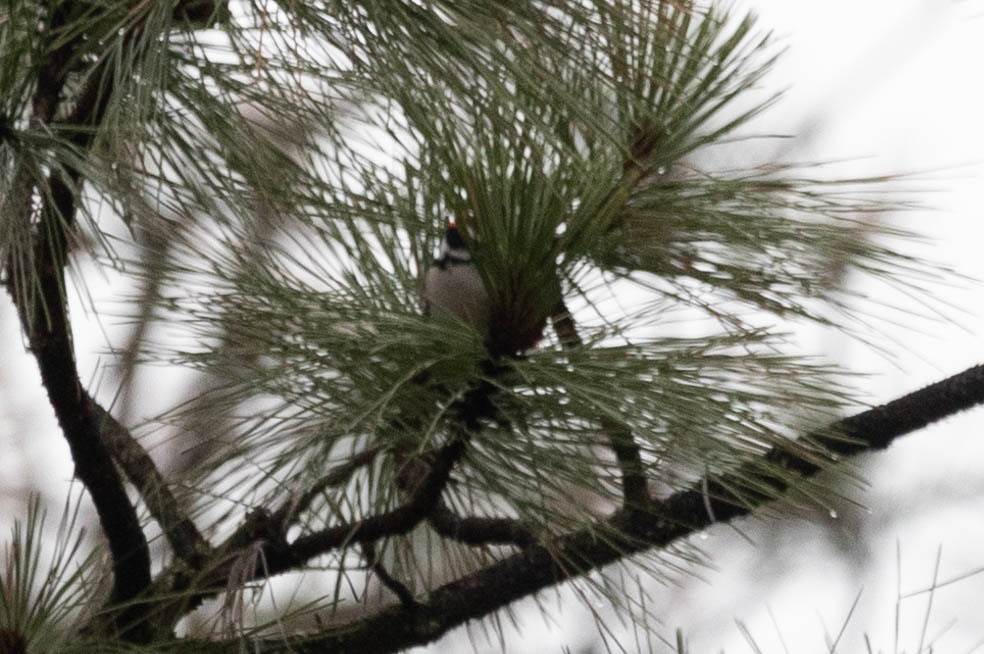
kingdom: Animalia
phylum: Chordata
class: Aves
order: Piciformes
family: Picidae
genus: Dryobates
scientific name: Dryobates pubescens
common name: Downy woodpecker
